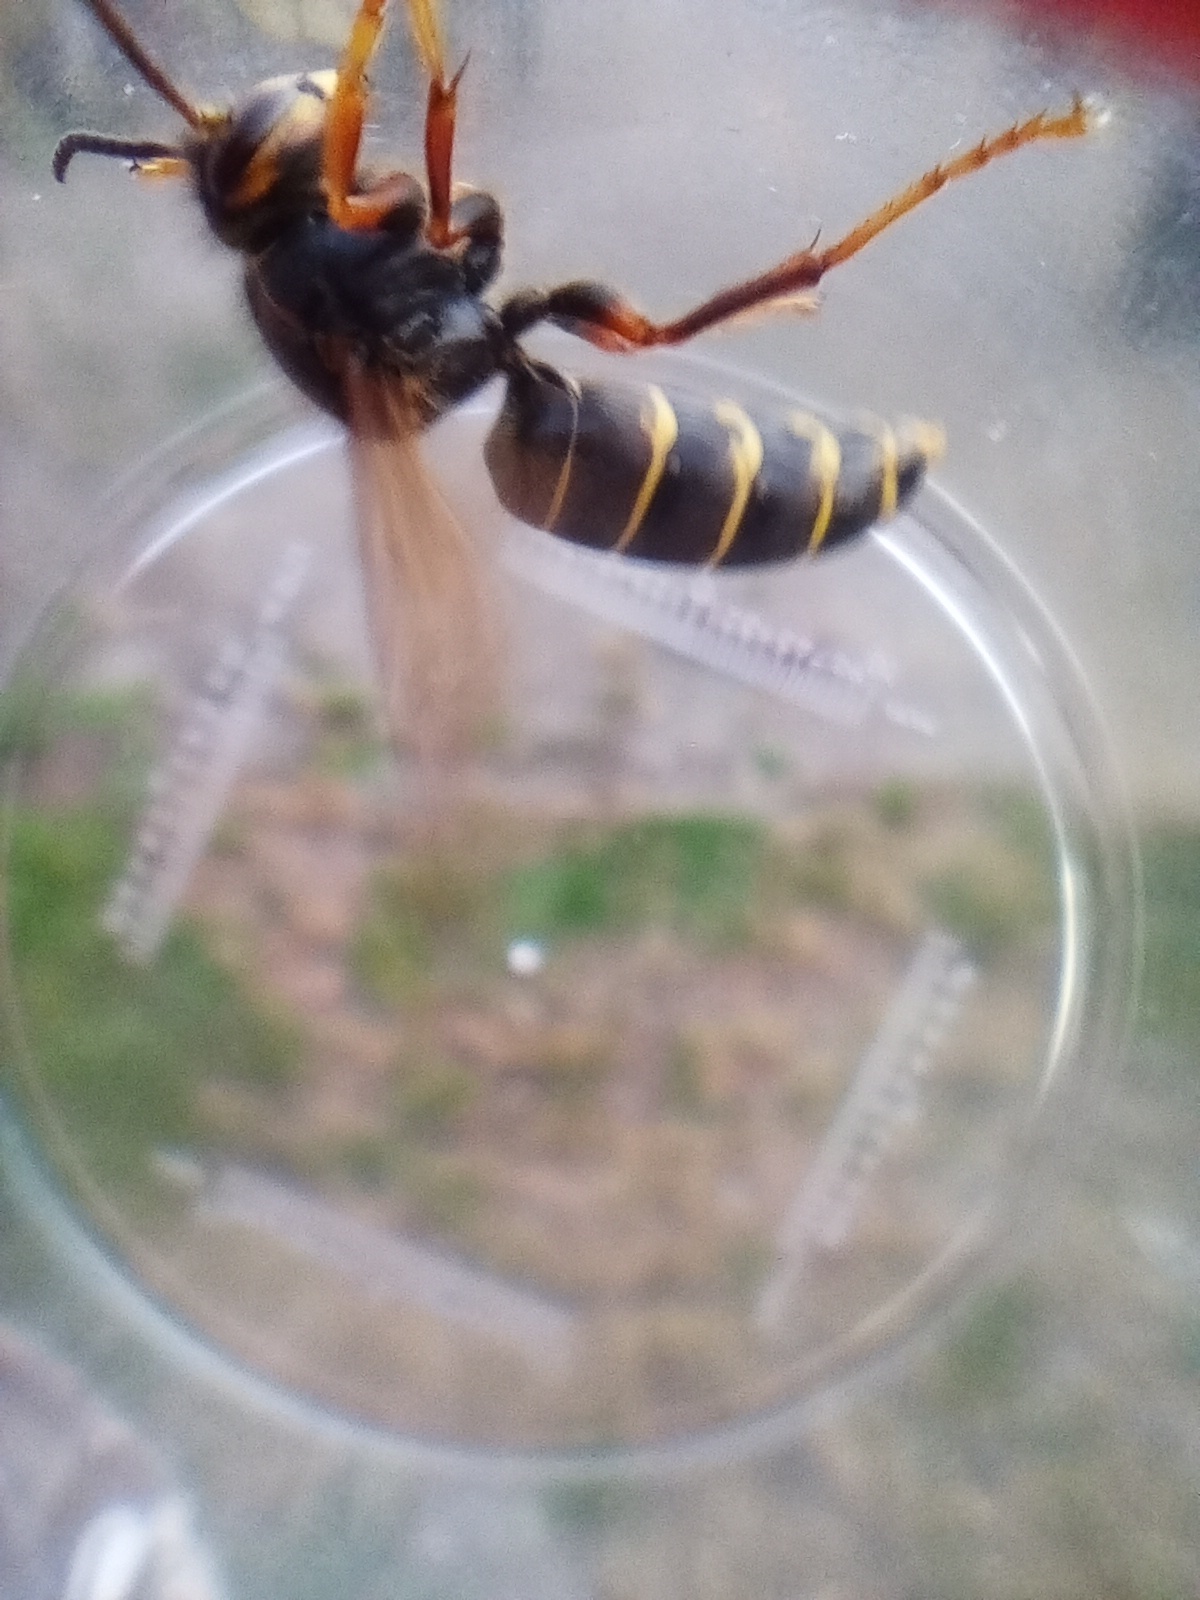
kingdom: Animalia
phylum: Arthropoda
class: Insecta
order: Hymenoptera
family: Vespidae
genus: Dolichovespula
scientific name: Dolichovespula media
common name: Median wasp
